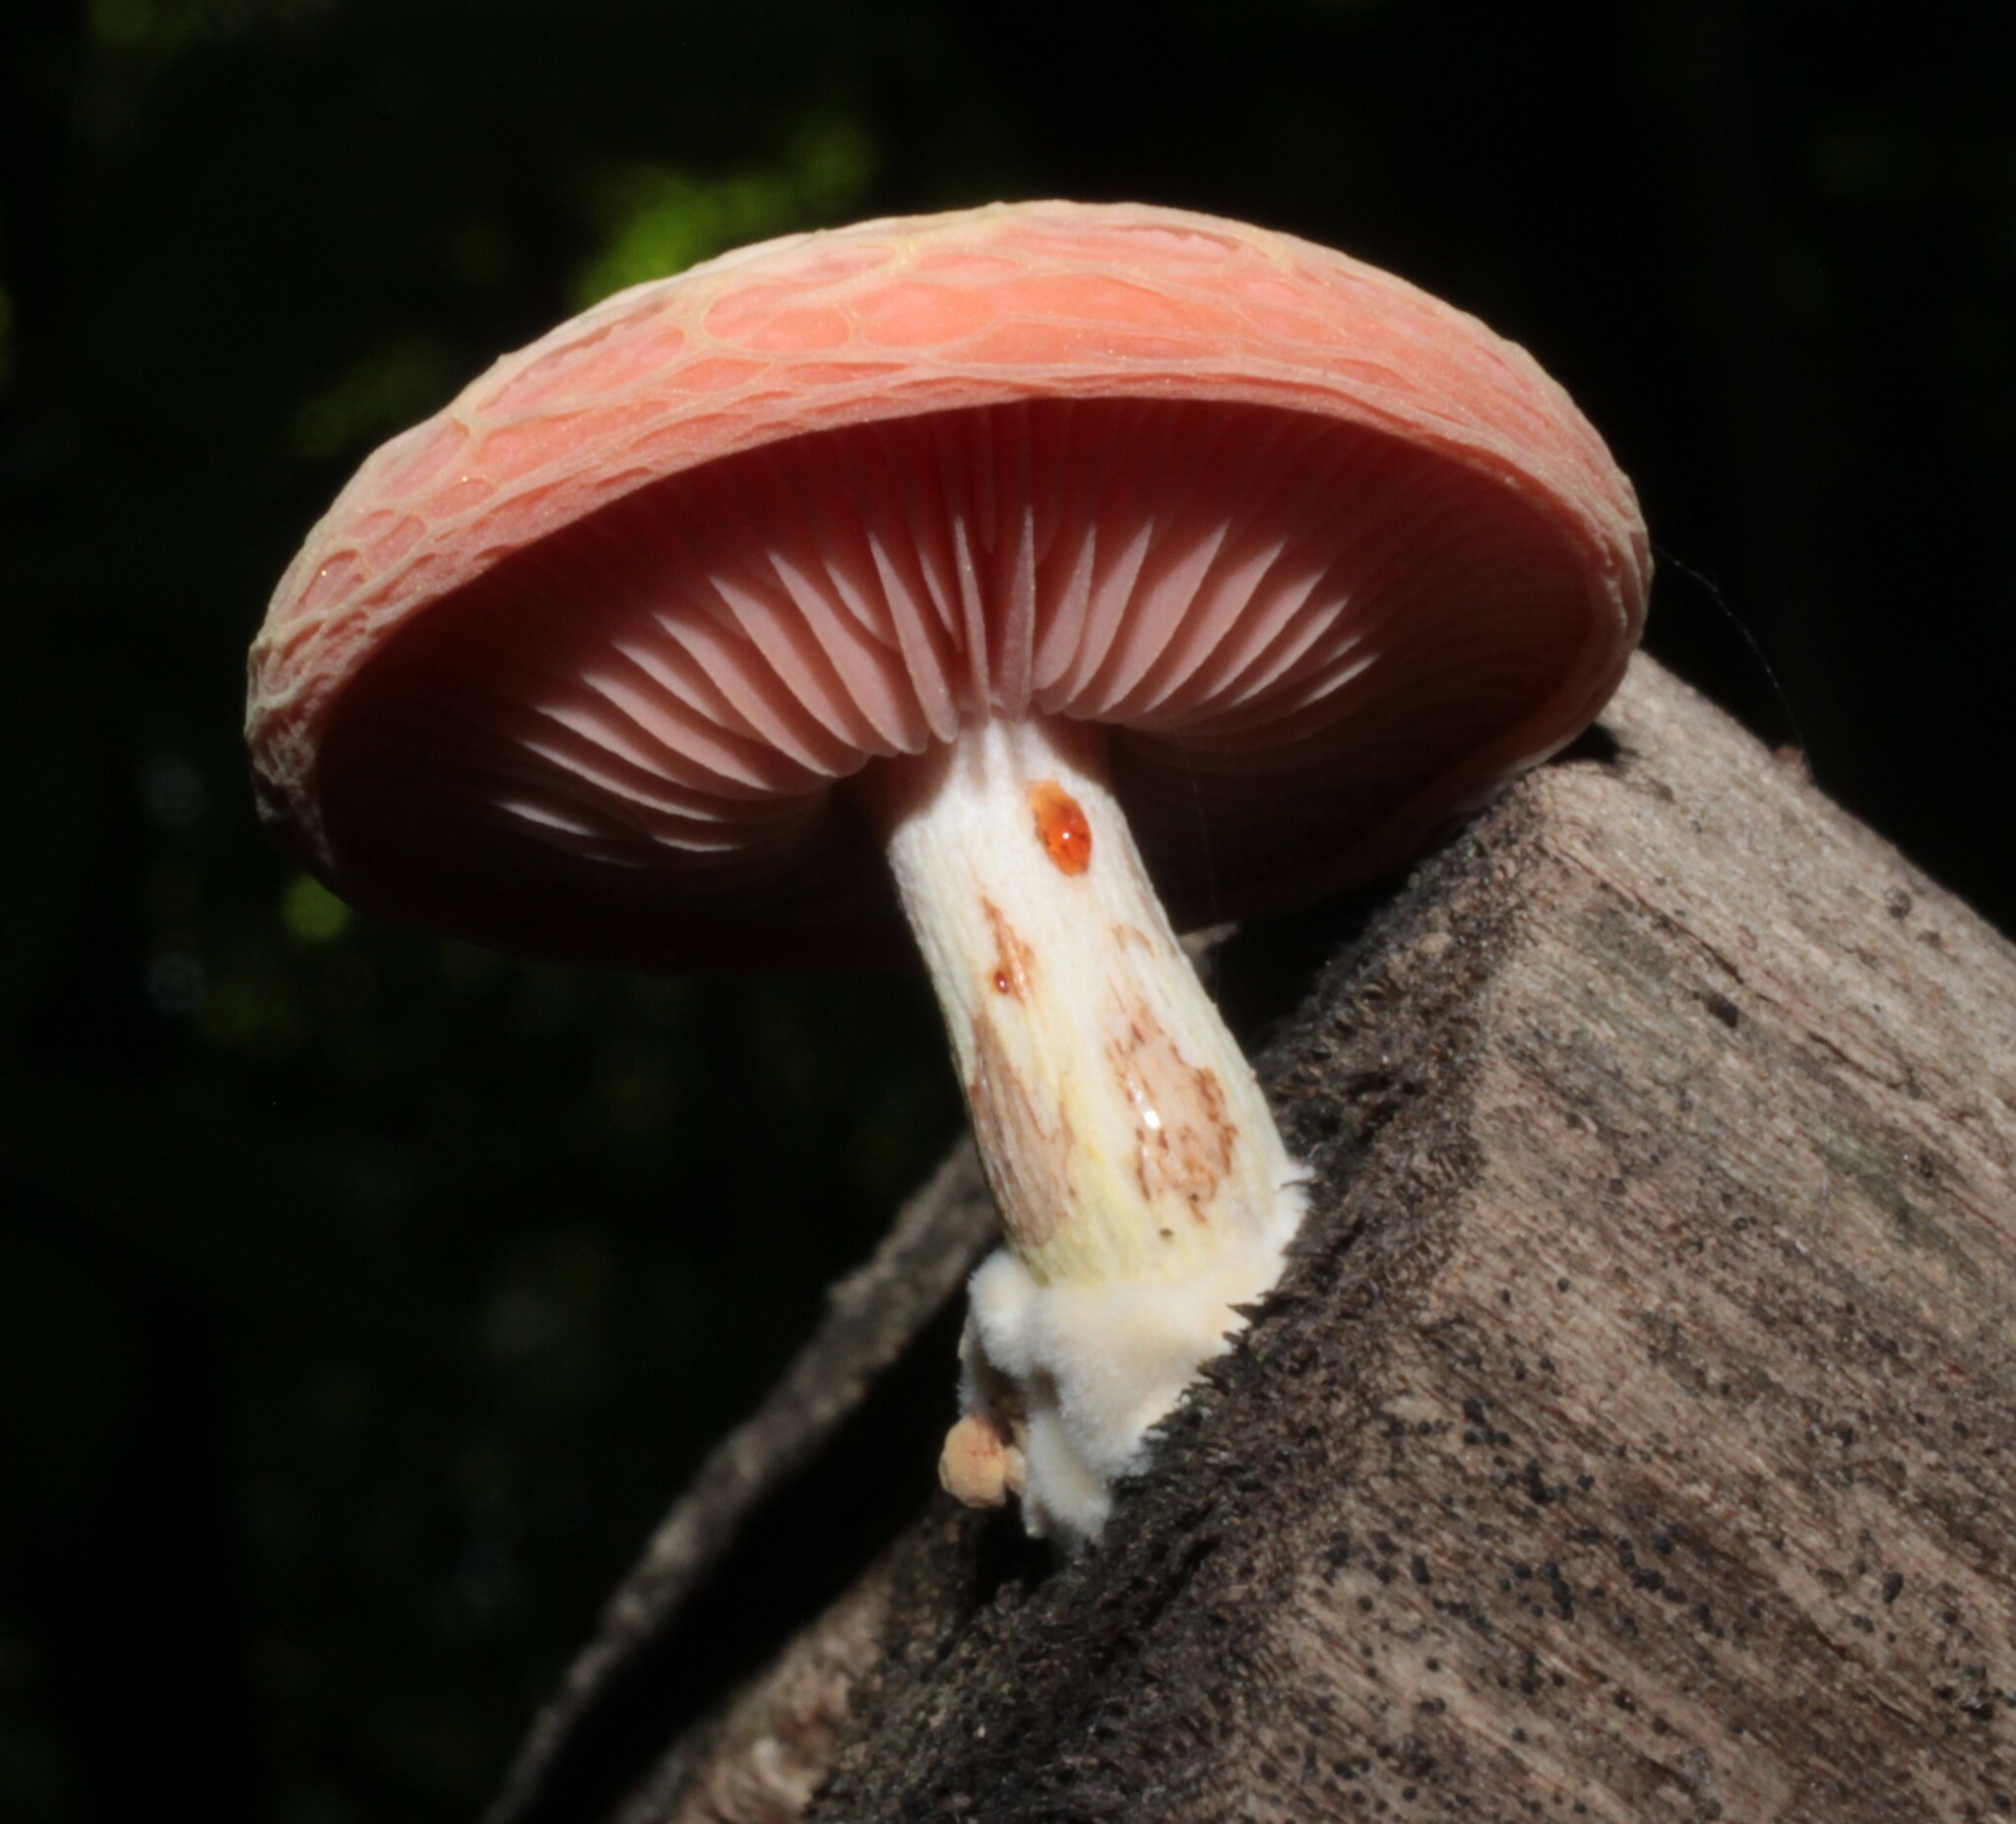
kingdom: Fungi
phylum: Basidiomycota
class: Agaricomycetes
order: Agaricales
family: Physalacriaceae
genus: Rhodotus
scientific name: Rhodotus palmatus
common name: Wrinkled peach
